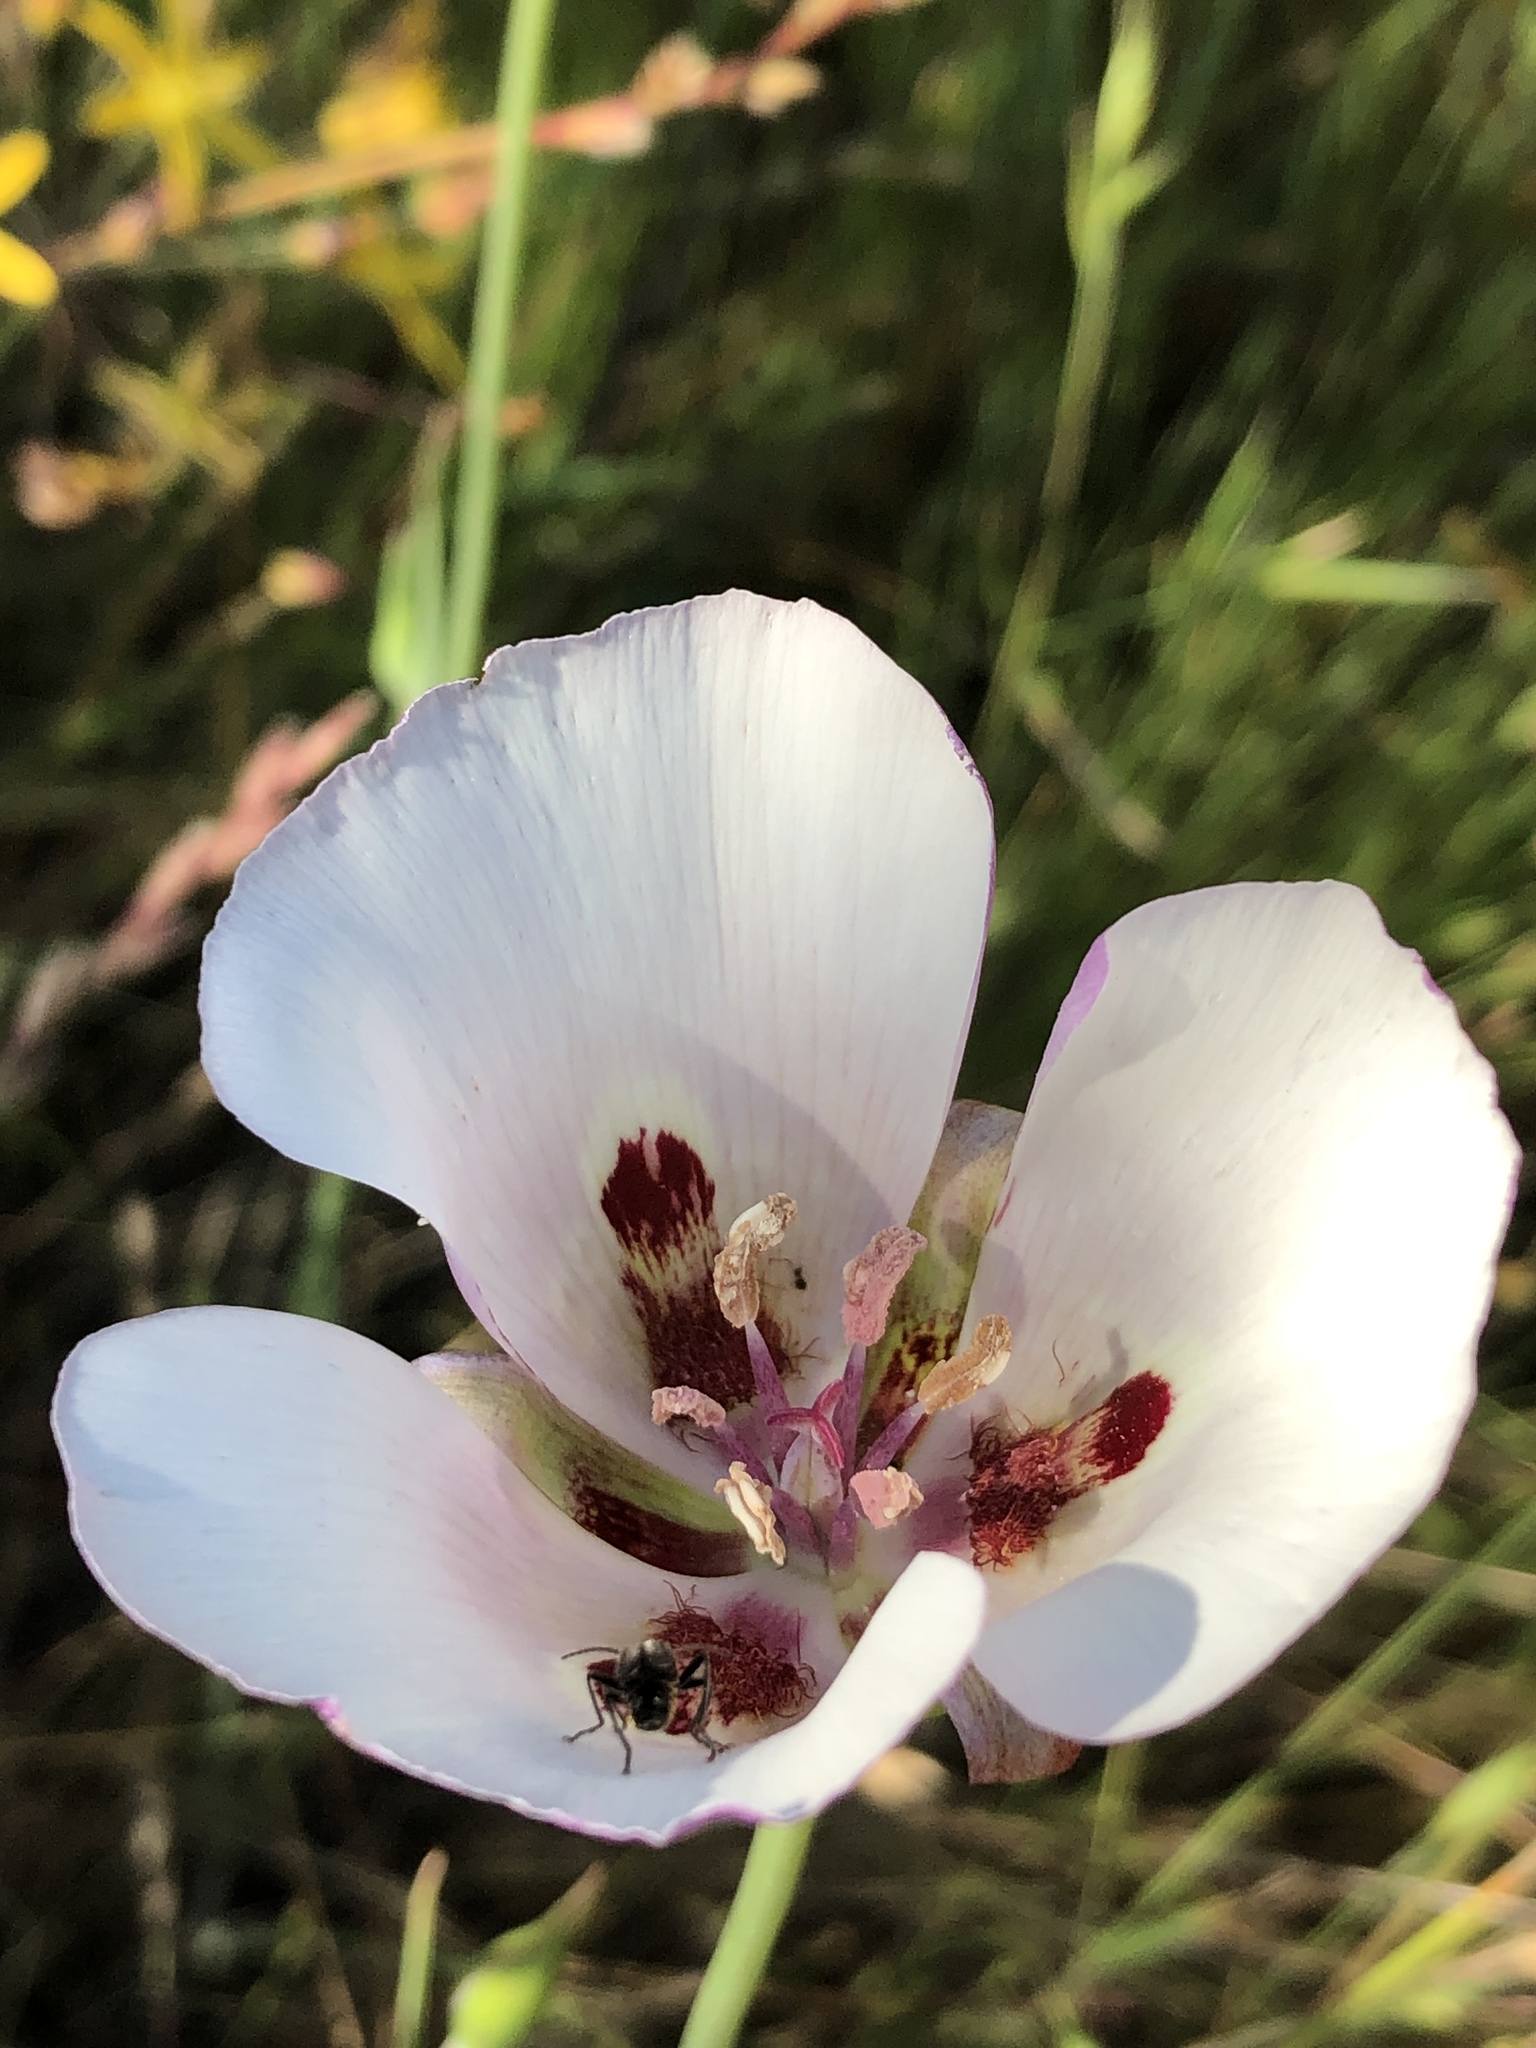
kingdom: Plantae
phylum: Tracheophyta
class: Liliopsida
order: Liliales
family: Liliaceae
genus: Calochortus
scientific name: Calochortus argillosus
